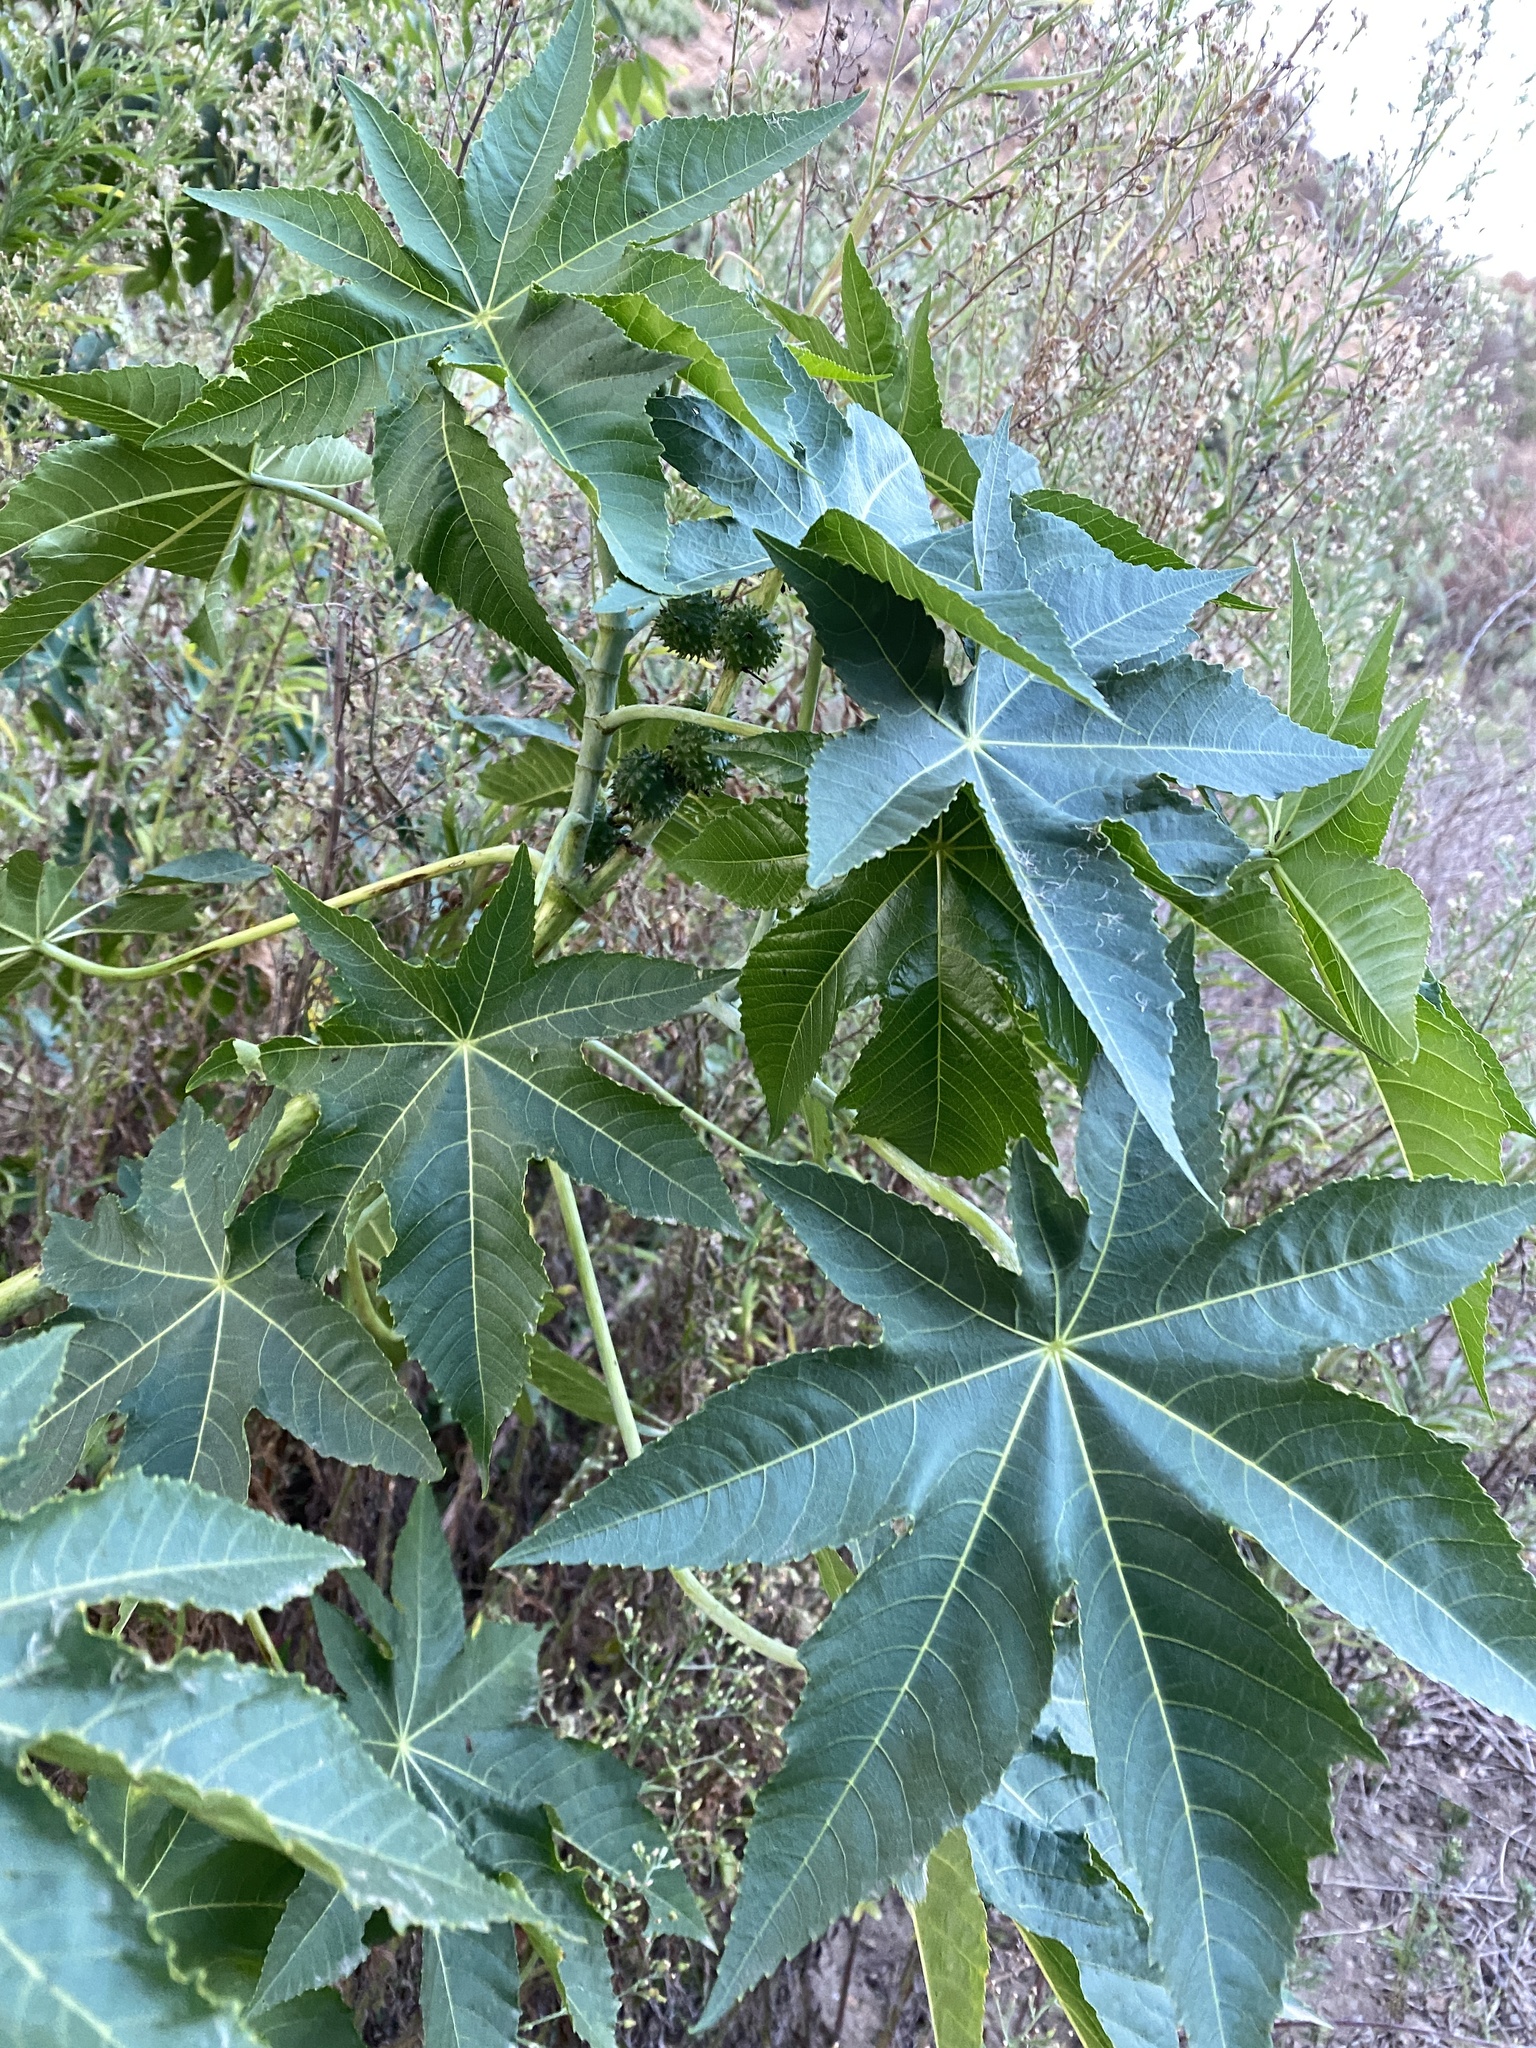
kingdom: Plantae
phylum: Tracheophyta
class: Magnoliopsida
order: Malpighiales
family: Euphorbiaceae
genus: Ricinus
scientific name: Ricinus communis
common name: Castor-oil-plant
